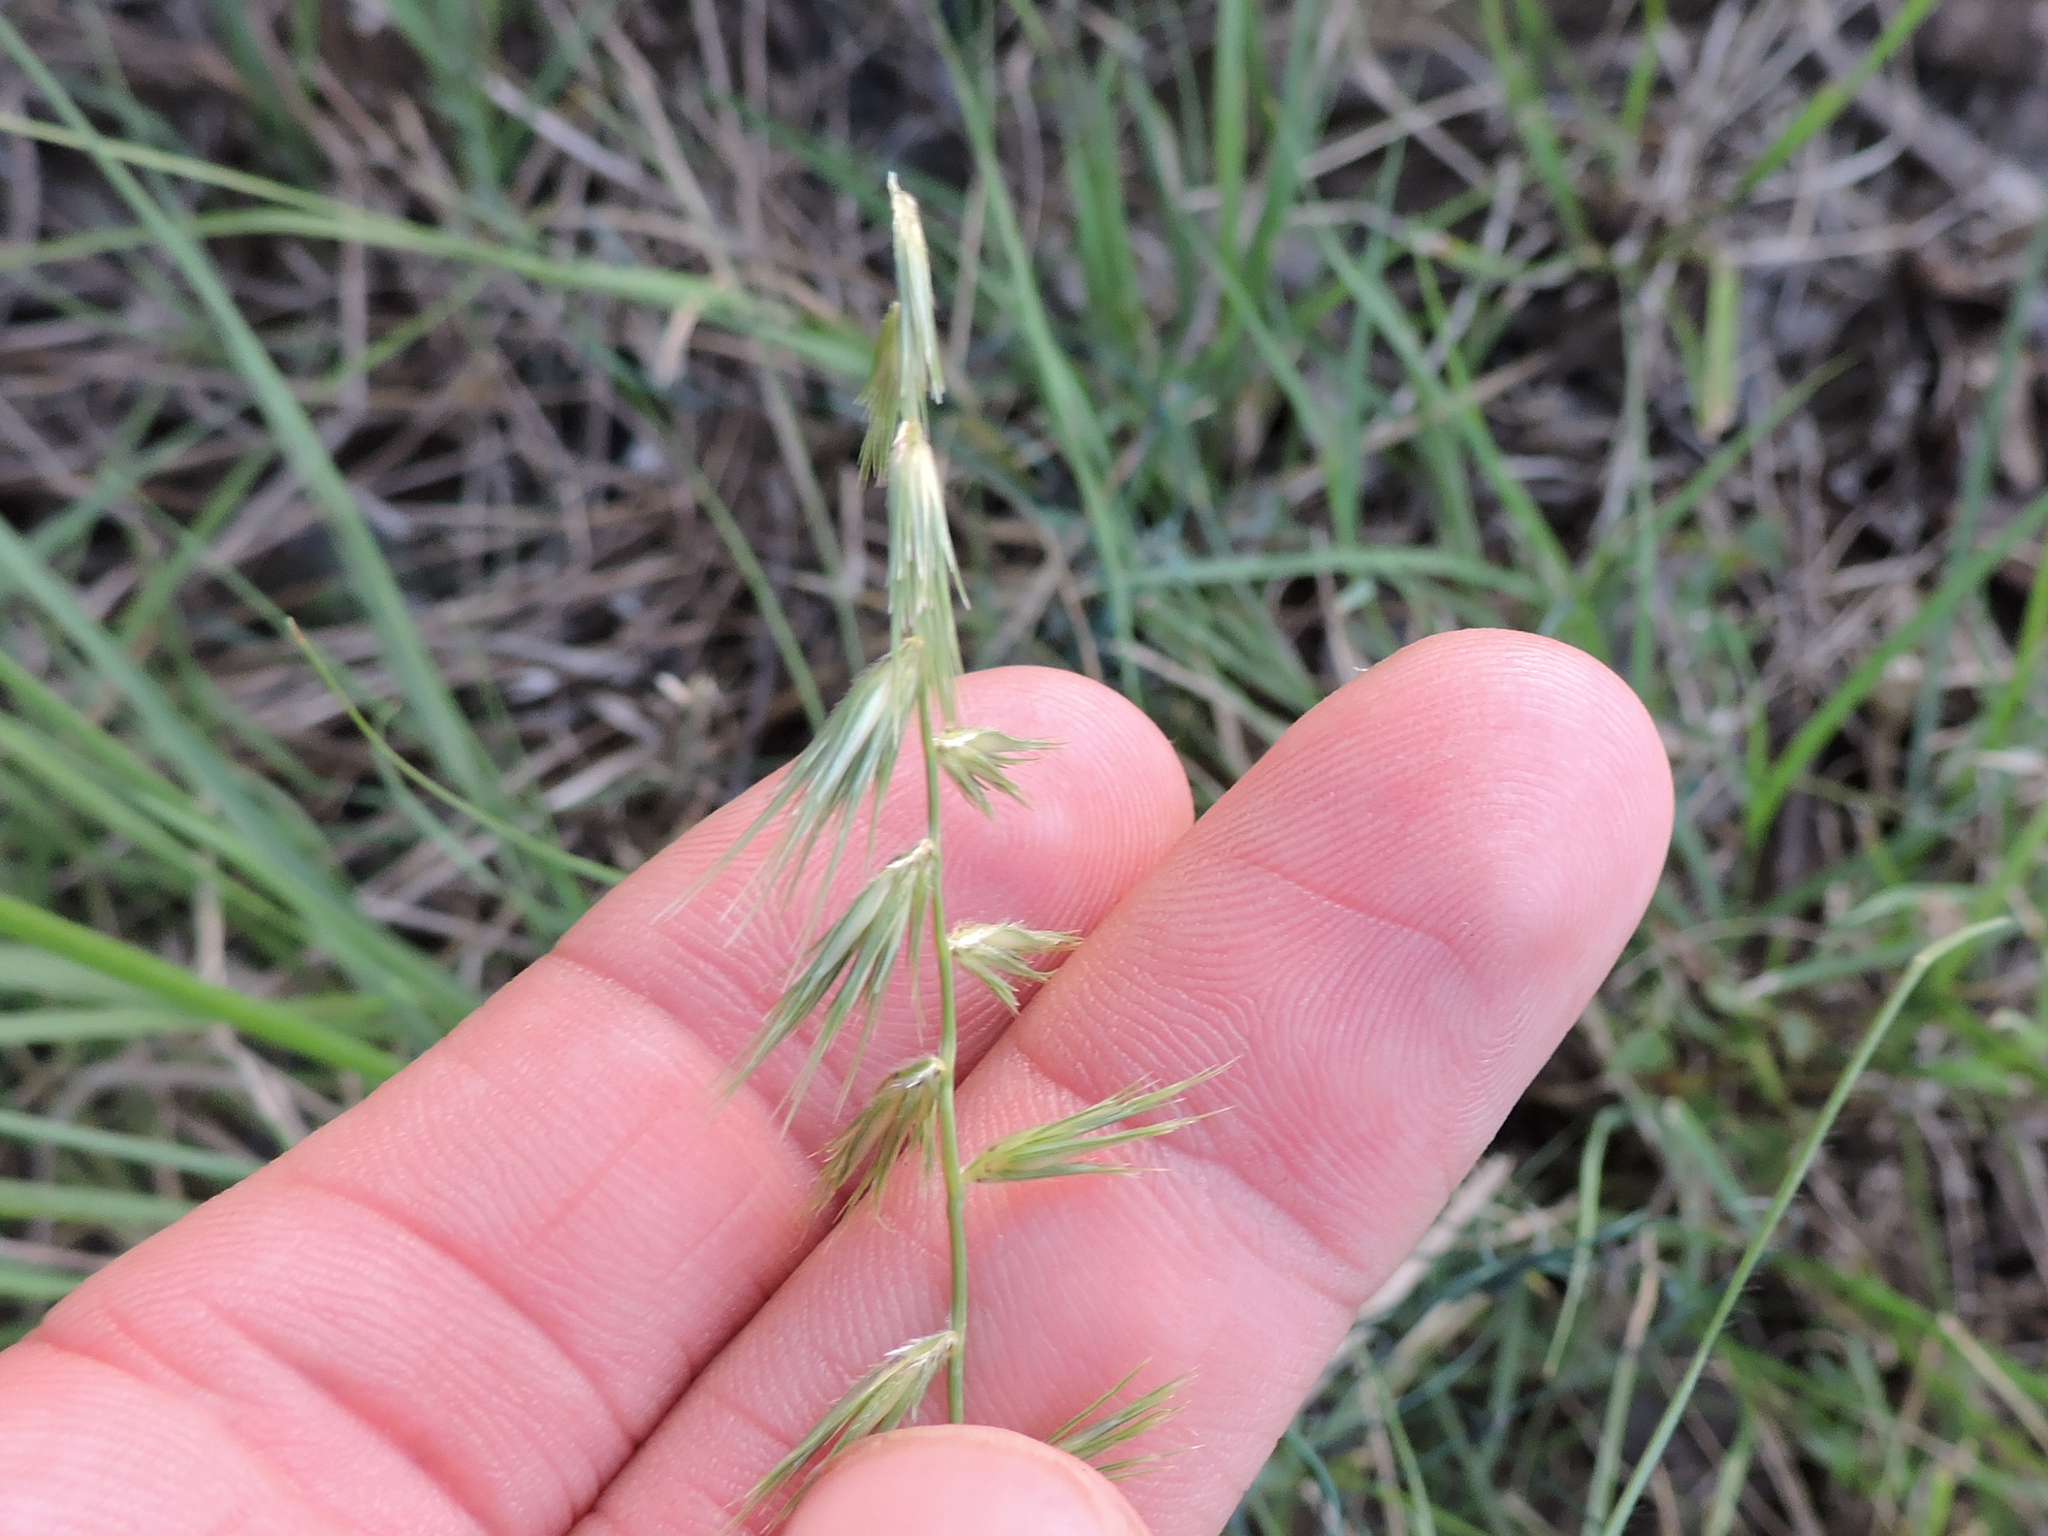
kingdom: Plantae
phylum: Tracheophyta
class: Liliopsida
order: Poales
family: Poaceae
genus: Bouteloua
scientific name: Bouteloua rigidiseta
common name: Texas grama
